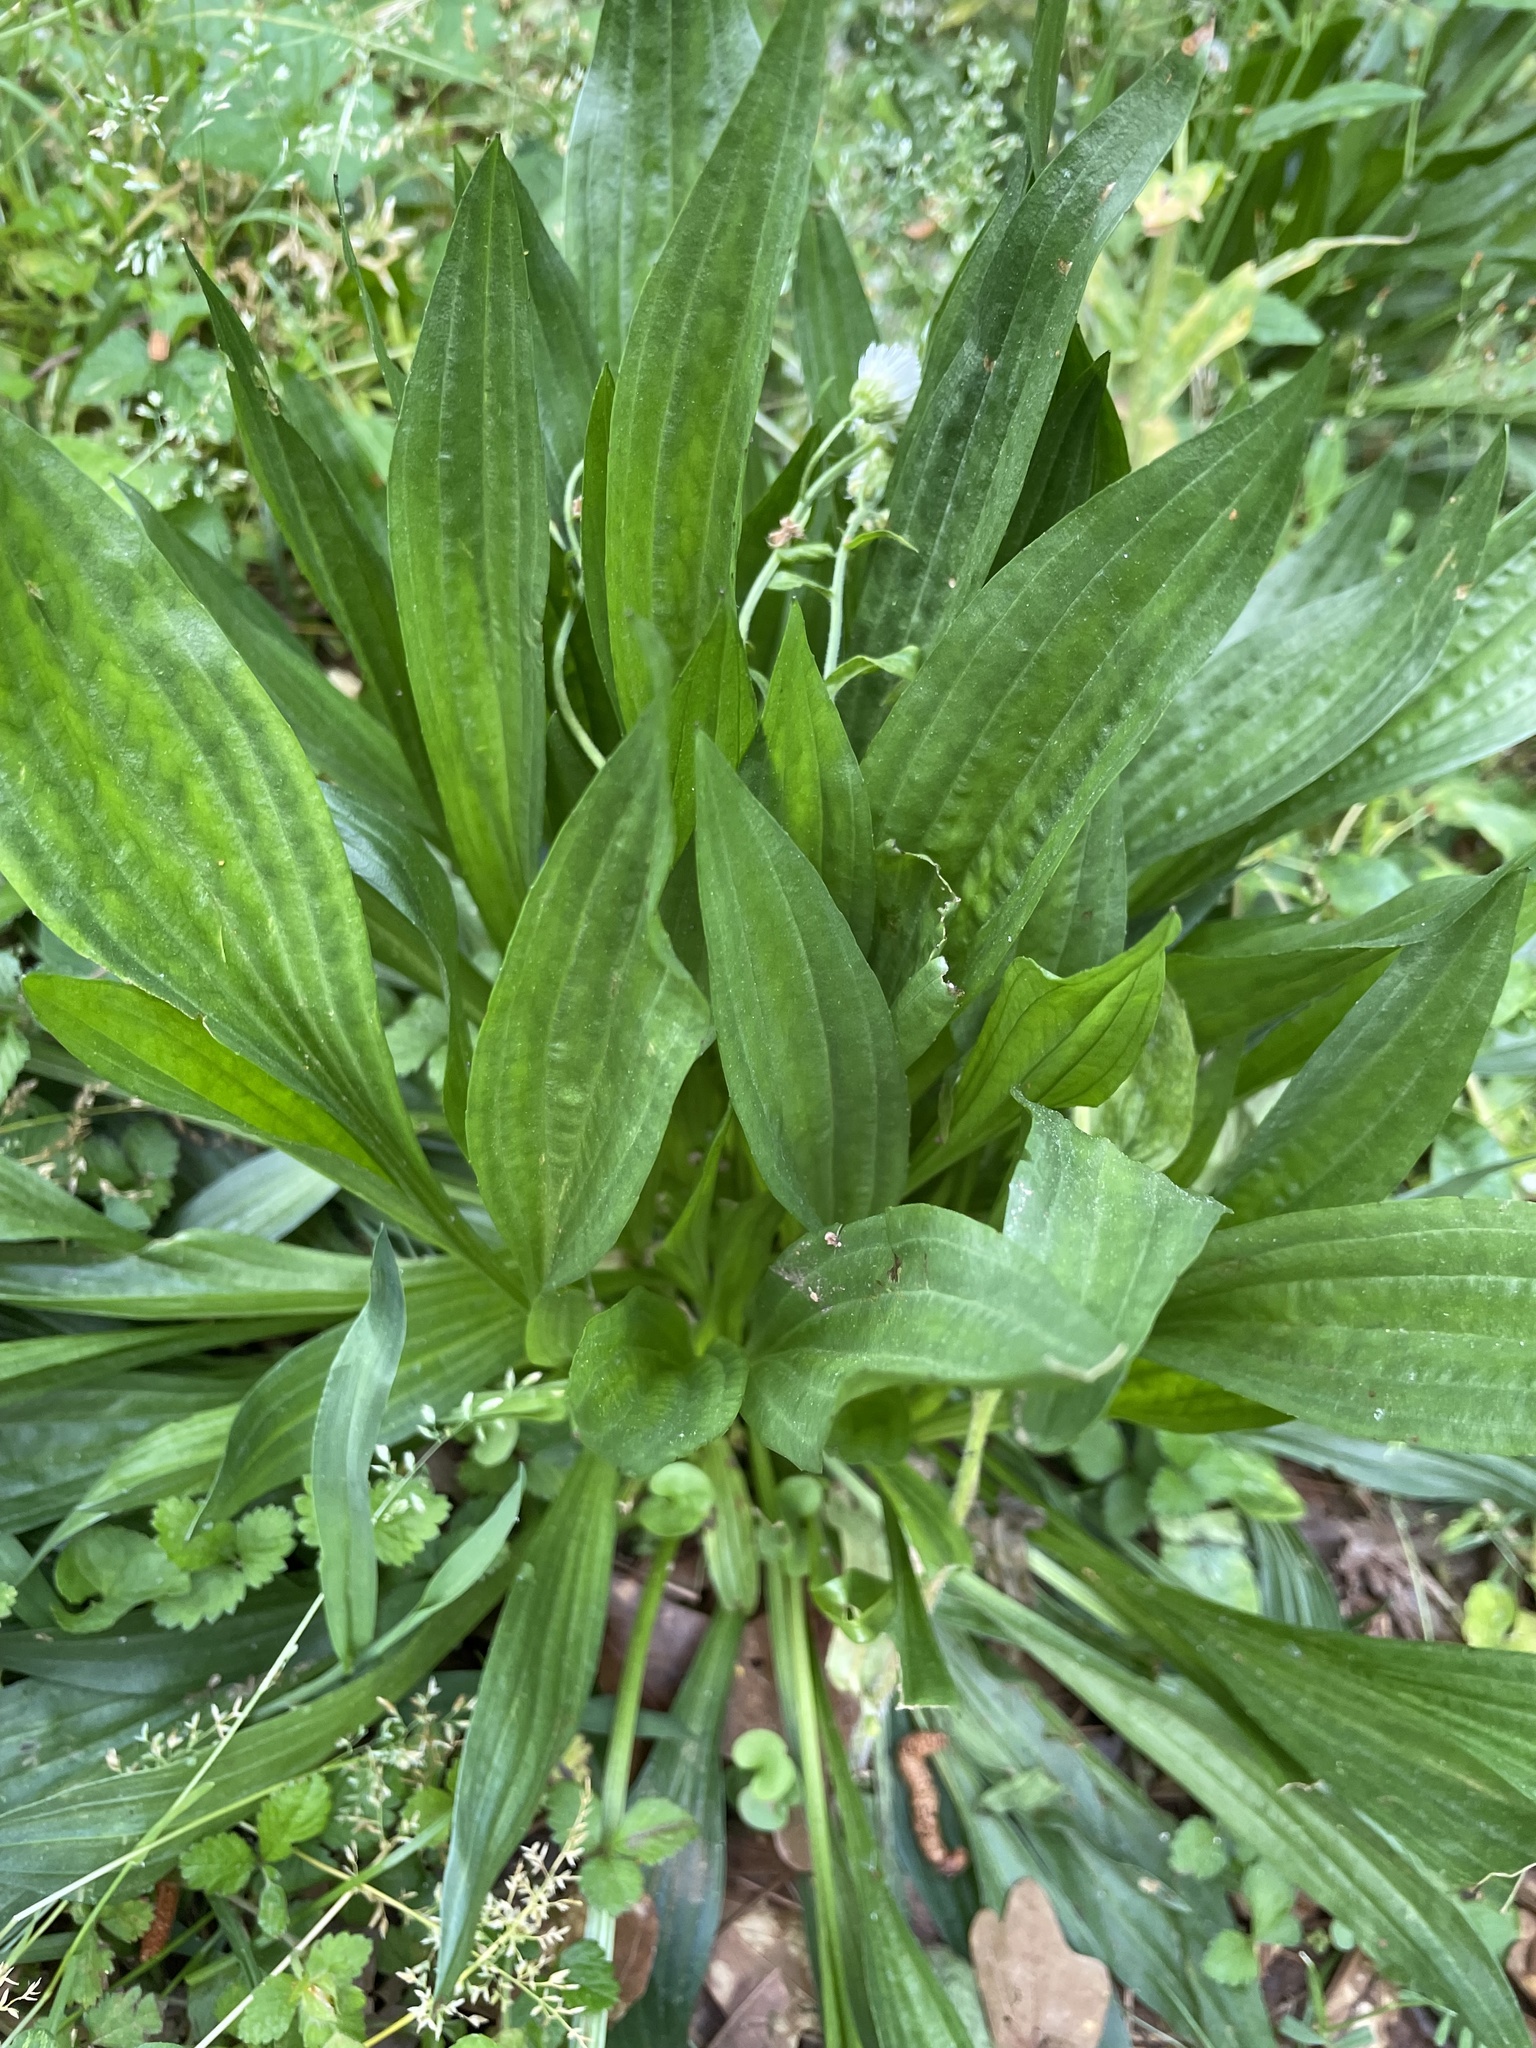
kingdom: Plantae
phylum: Tracheophyta
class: Magnoliopsida
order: Lamiales
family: Plantaginaceae
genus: Plantago
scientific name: Plantago lanceolata
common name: Ribwort plantain
